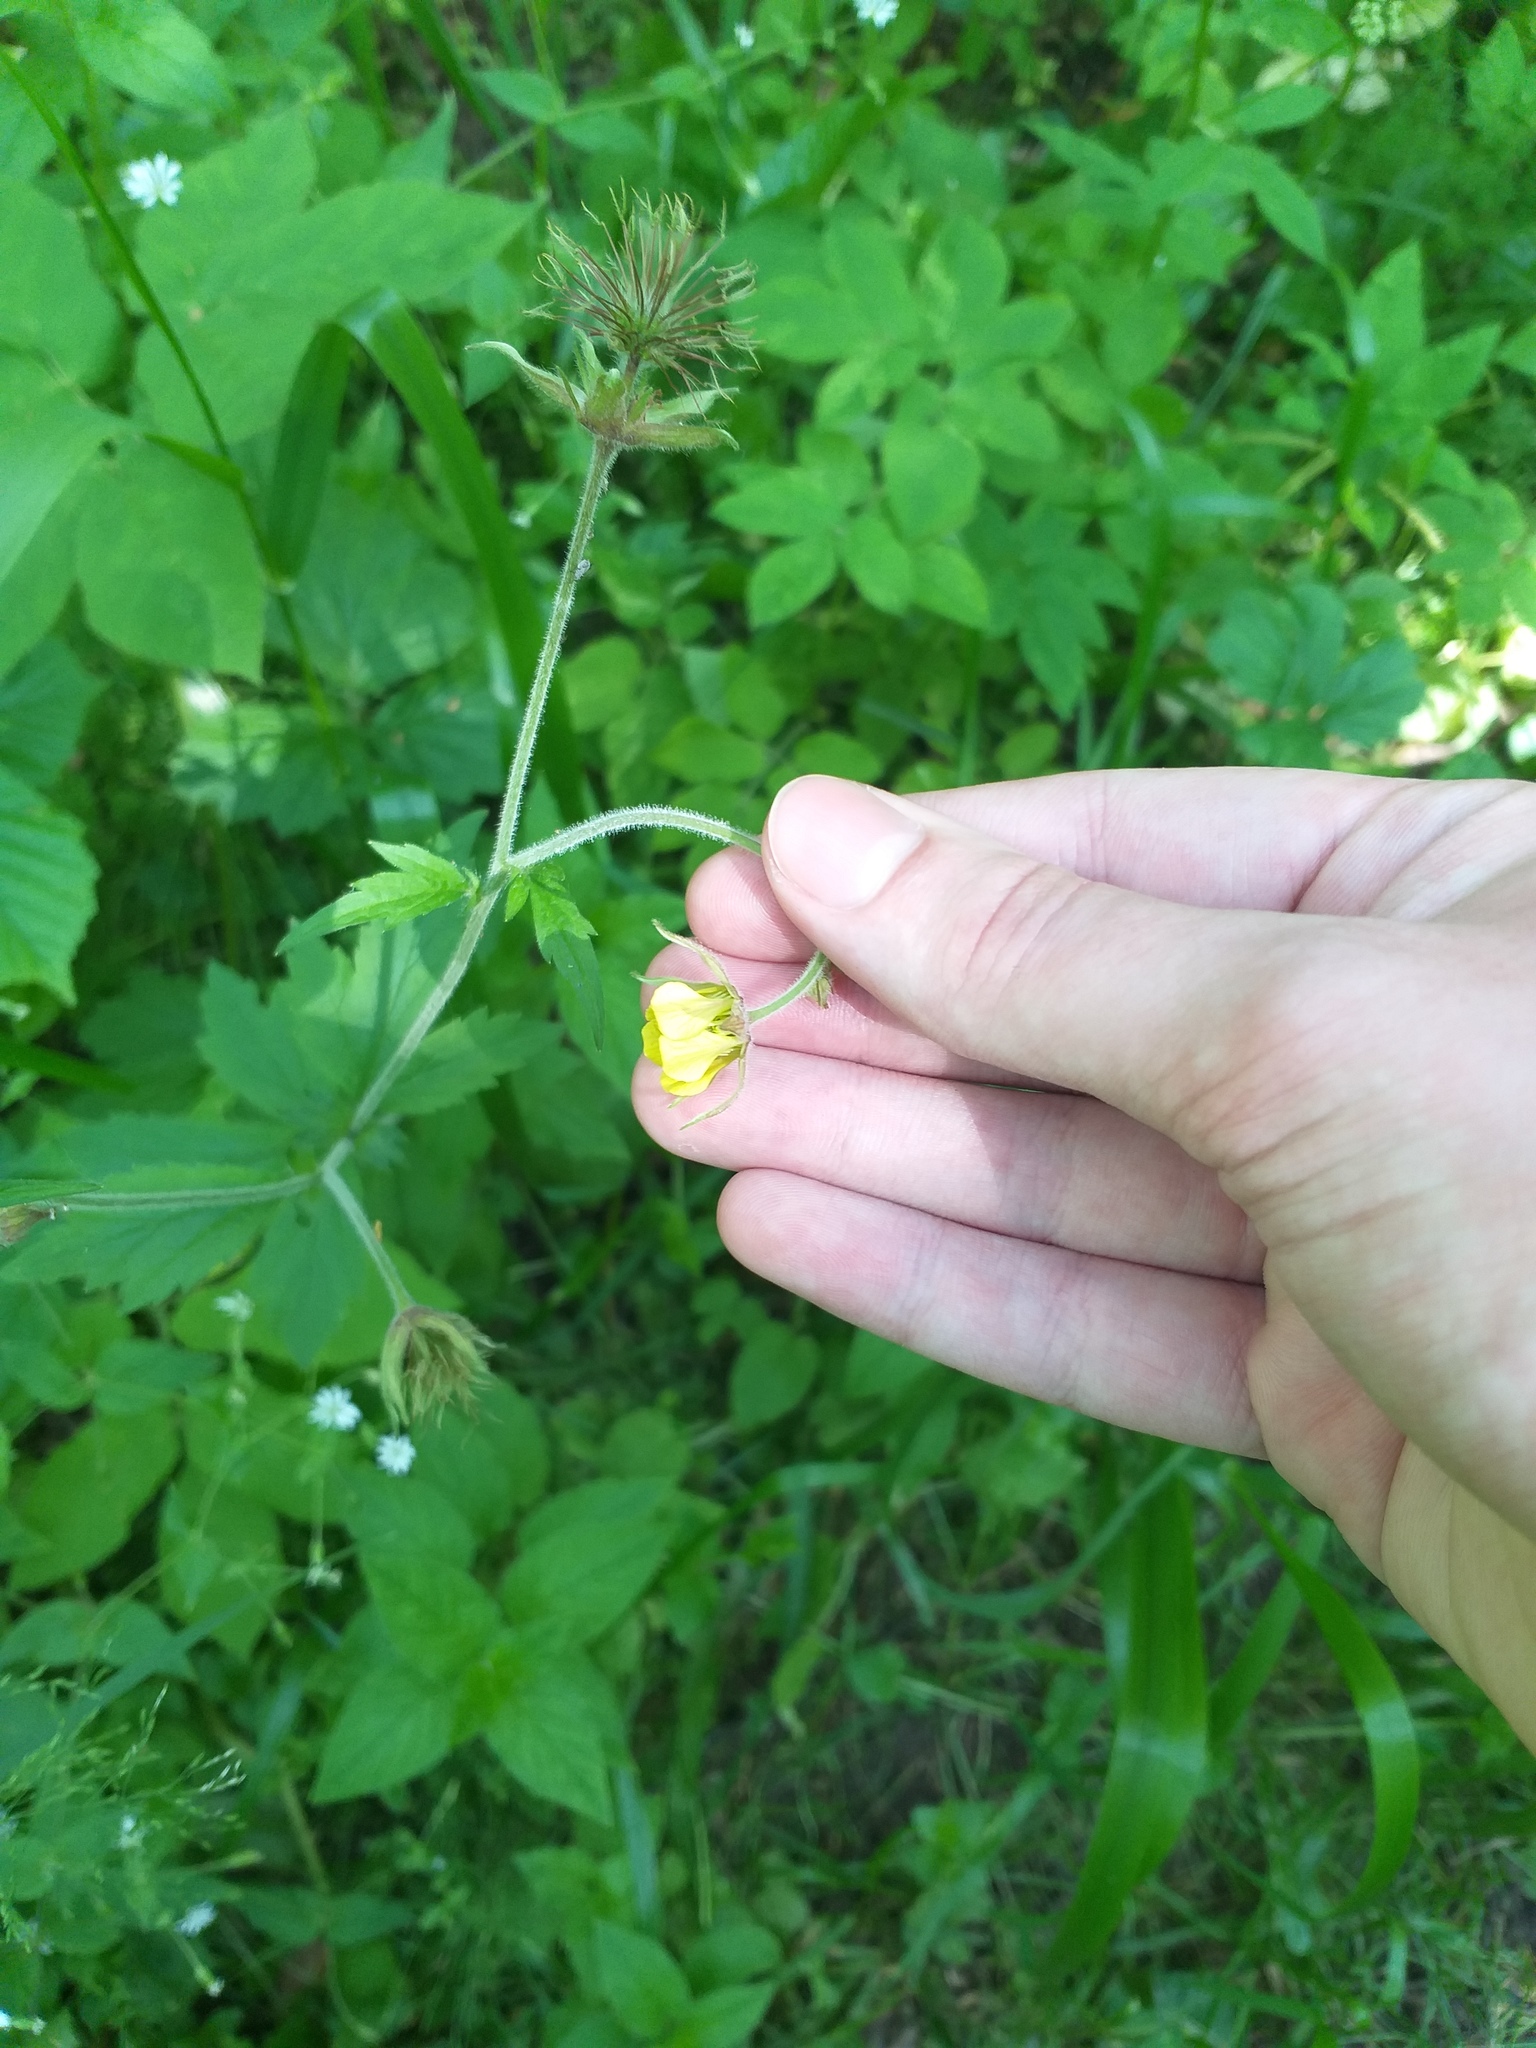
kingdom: Plantae
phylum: Tracheophyta
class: Magnoliopsida
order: Rosales
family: Rosaceae
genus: Geum
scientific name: Geum intermedium
